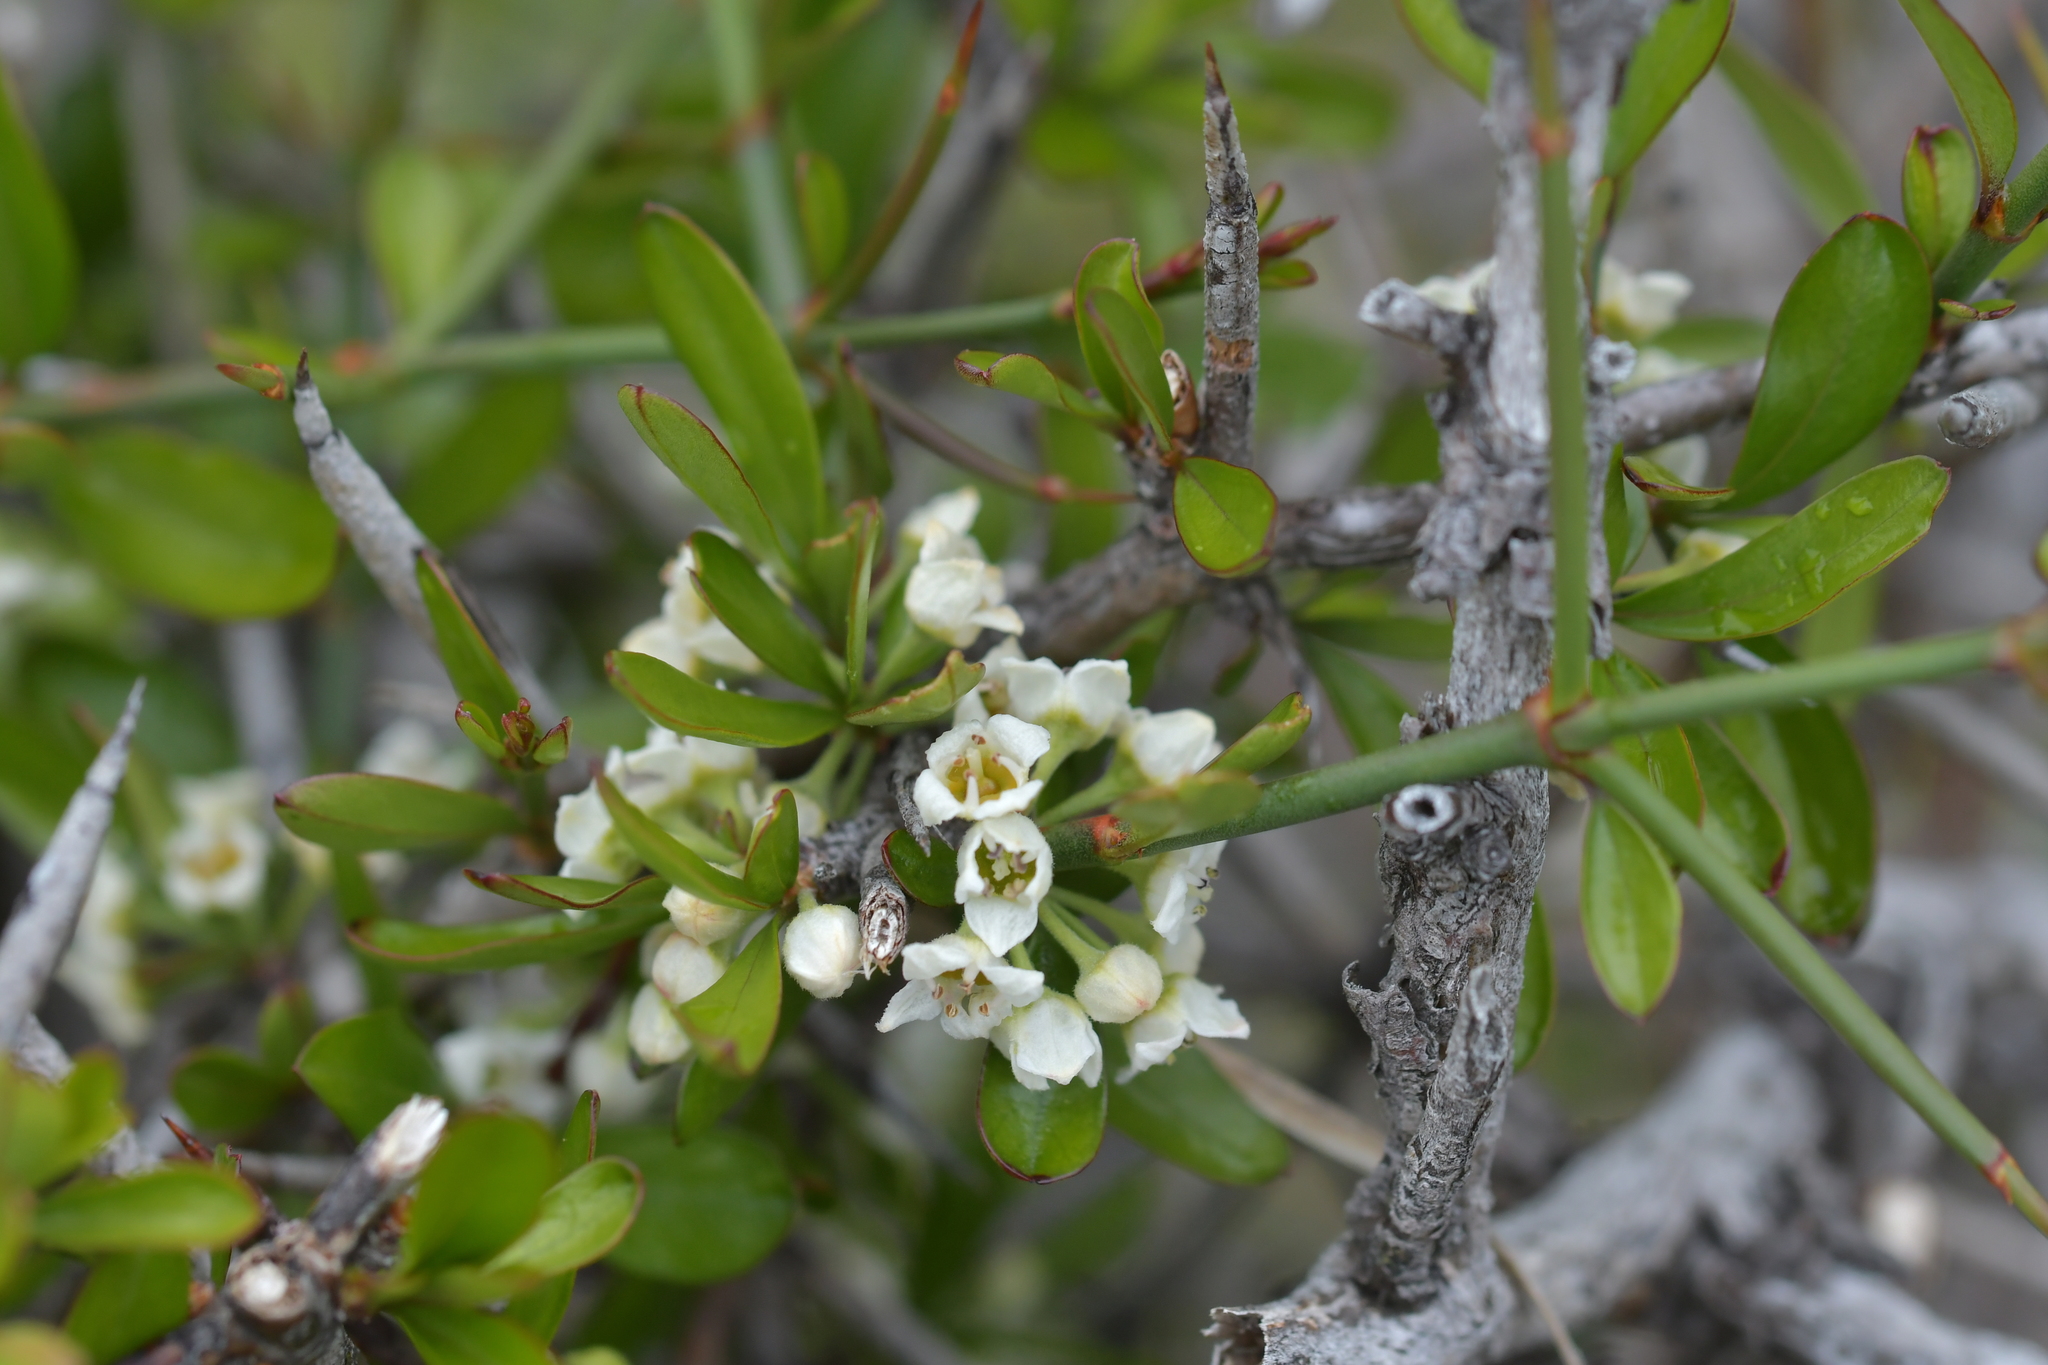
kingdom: Plantae
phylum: Tracheophyta
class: Magnoliopsida
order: Rosales
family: Rhamnaceae
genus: Discaria
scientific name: Discaria toumatou
